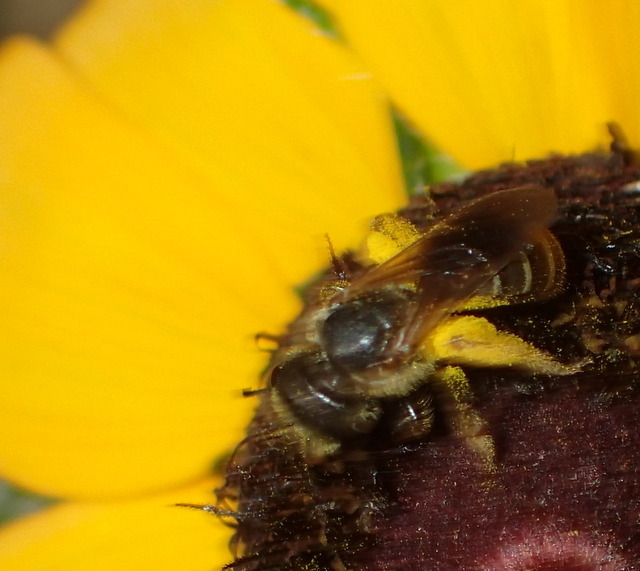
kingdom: Animalia
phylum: Arthropoda
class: Insecta
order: Hymenoptera
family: Halictidae
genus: Halictus
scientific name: Halictus poeyi
